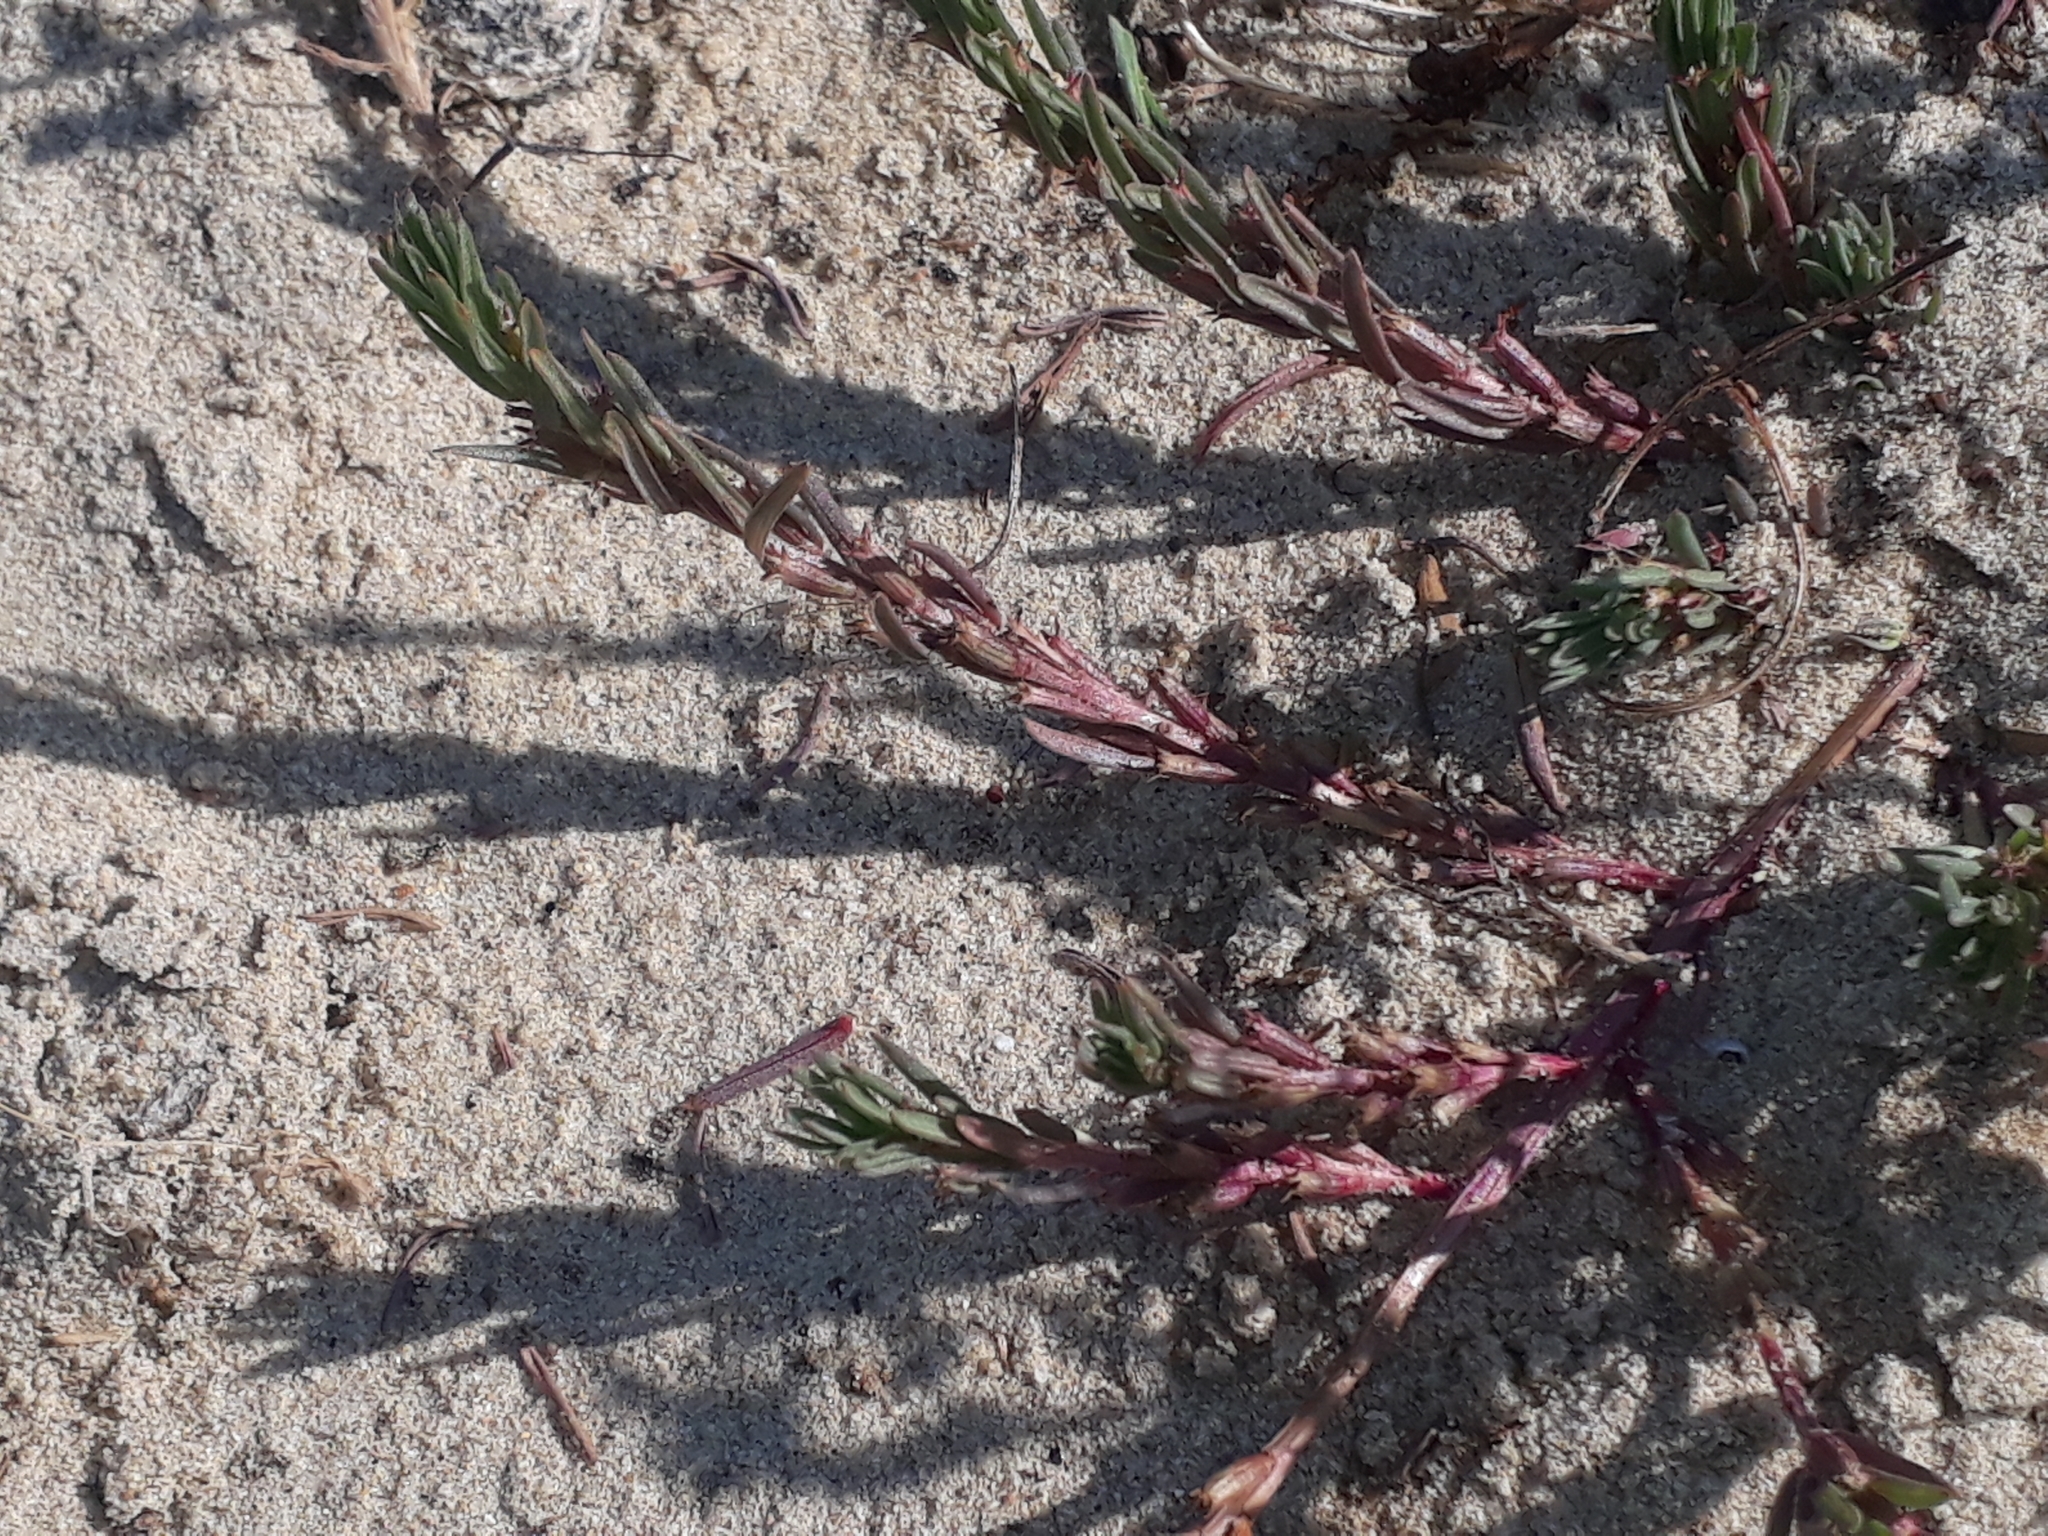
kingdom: Plantae
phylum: Tracheophyta
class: Magnoliopsida
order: Myrtales
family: Lythraceae
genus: Lythrum
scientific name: Lythrum hyssopifolia
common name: Grass-poly
